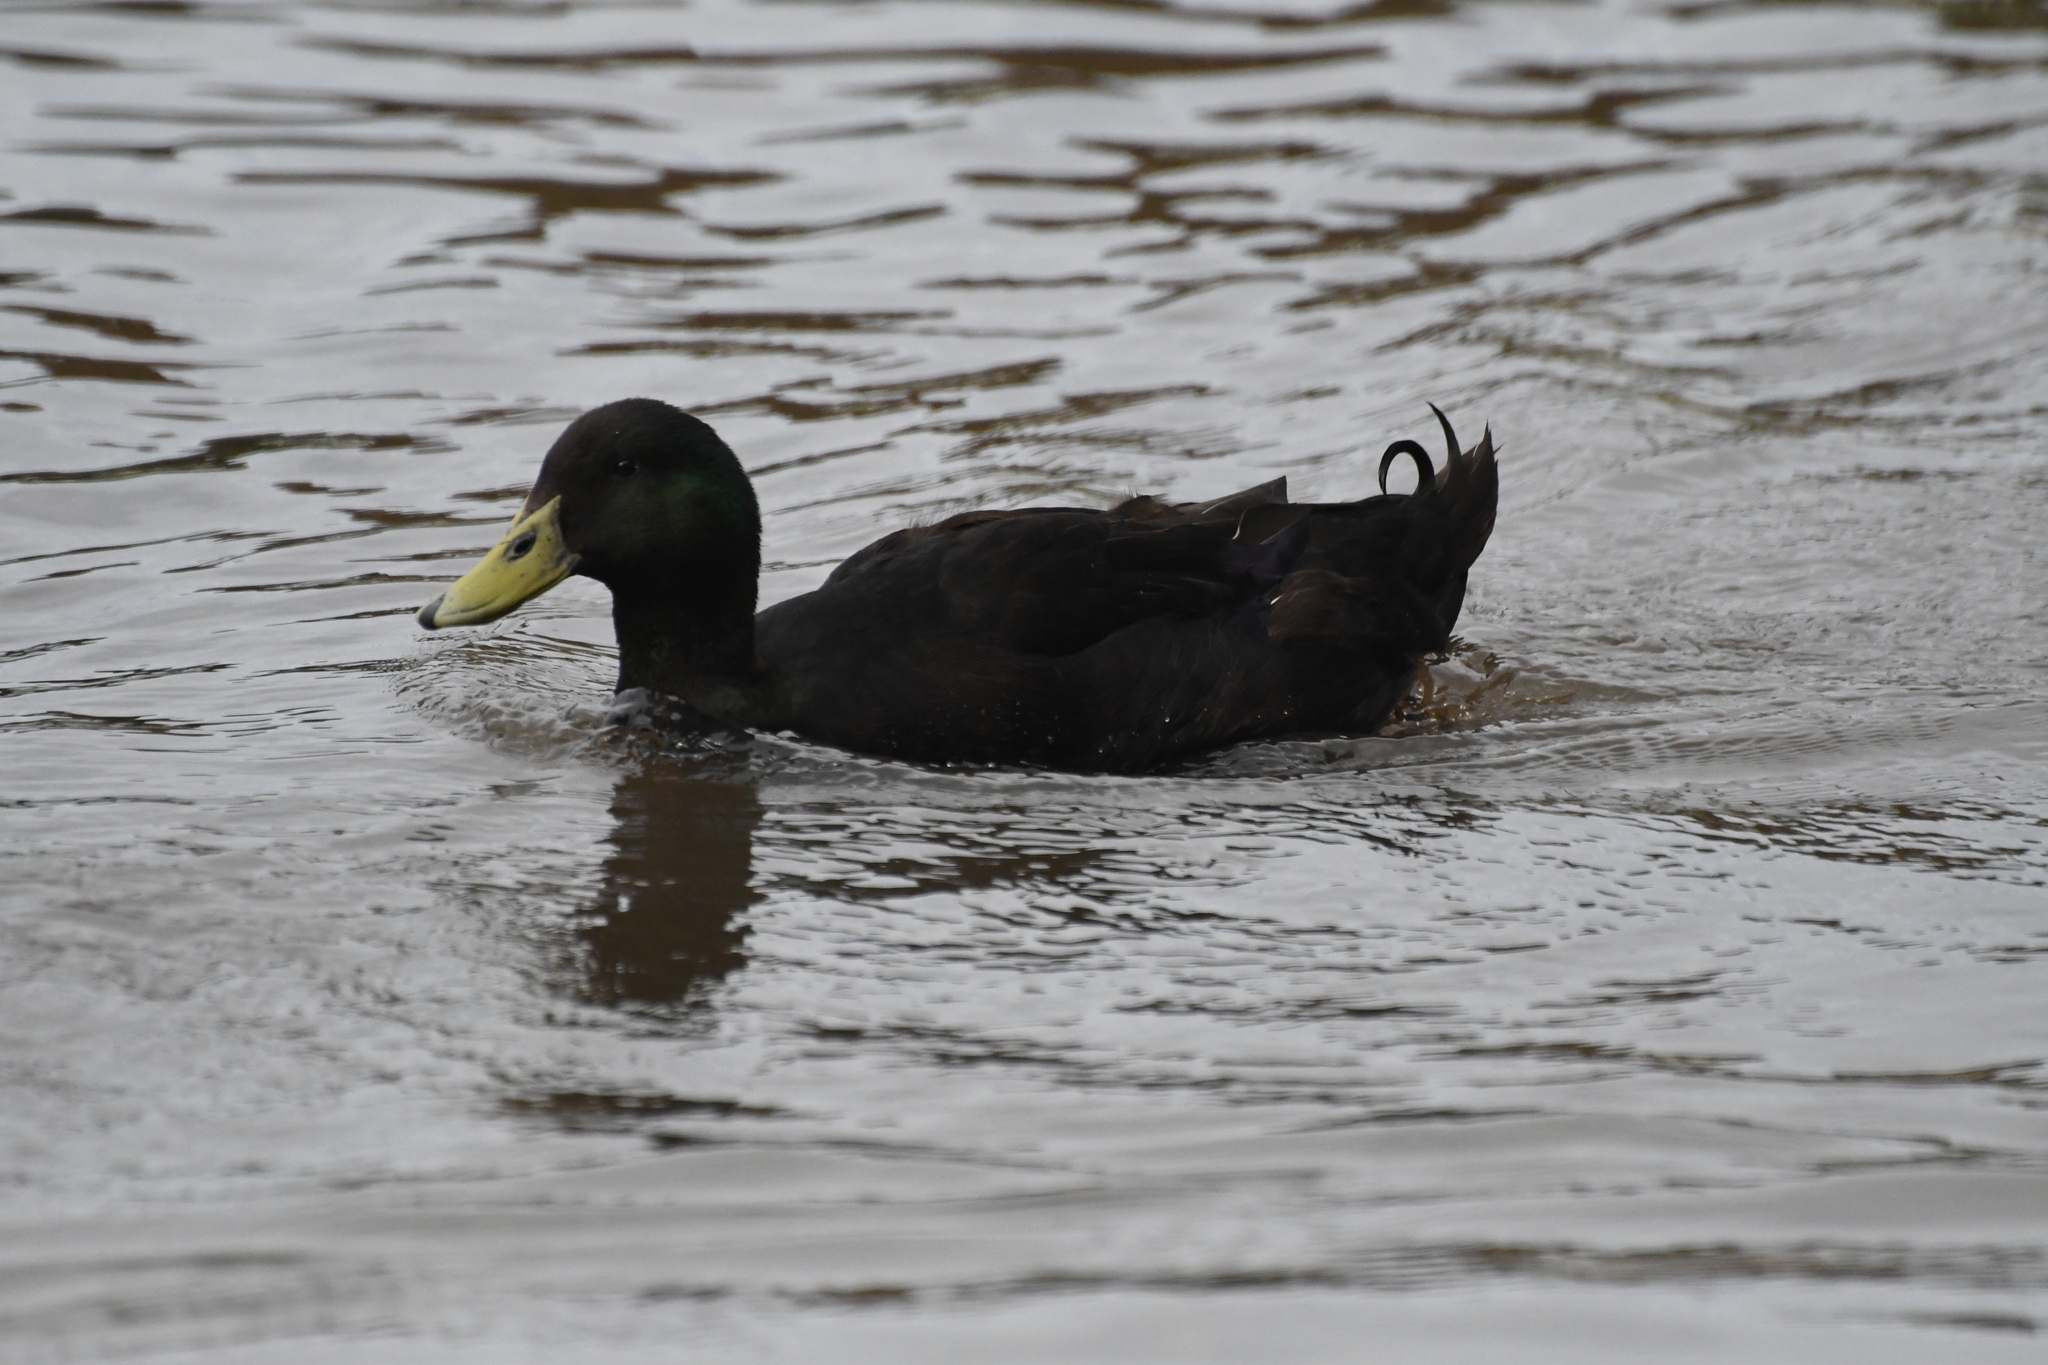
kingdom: Animalia
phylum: Chordata
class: Aves
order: Anseriformes
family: Anatidae
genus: Anas
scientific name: Anas platyrhynchos
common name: Mallard
